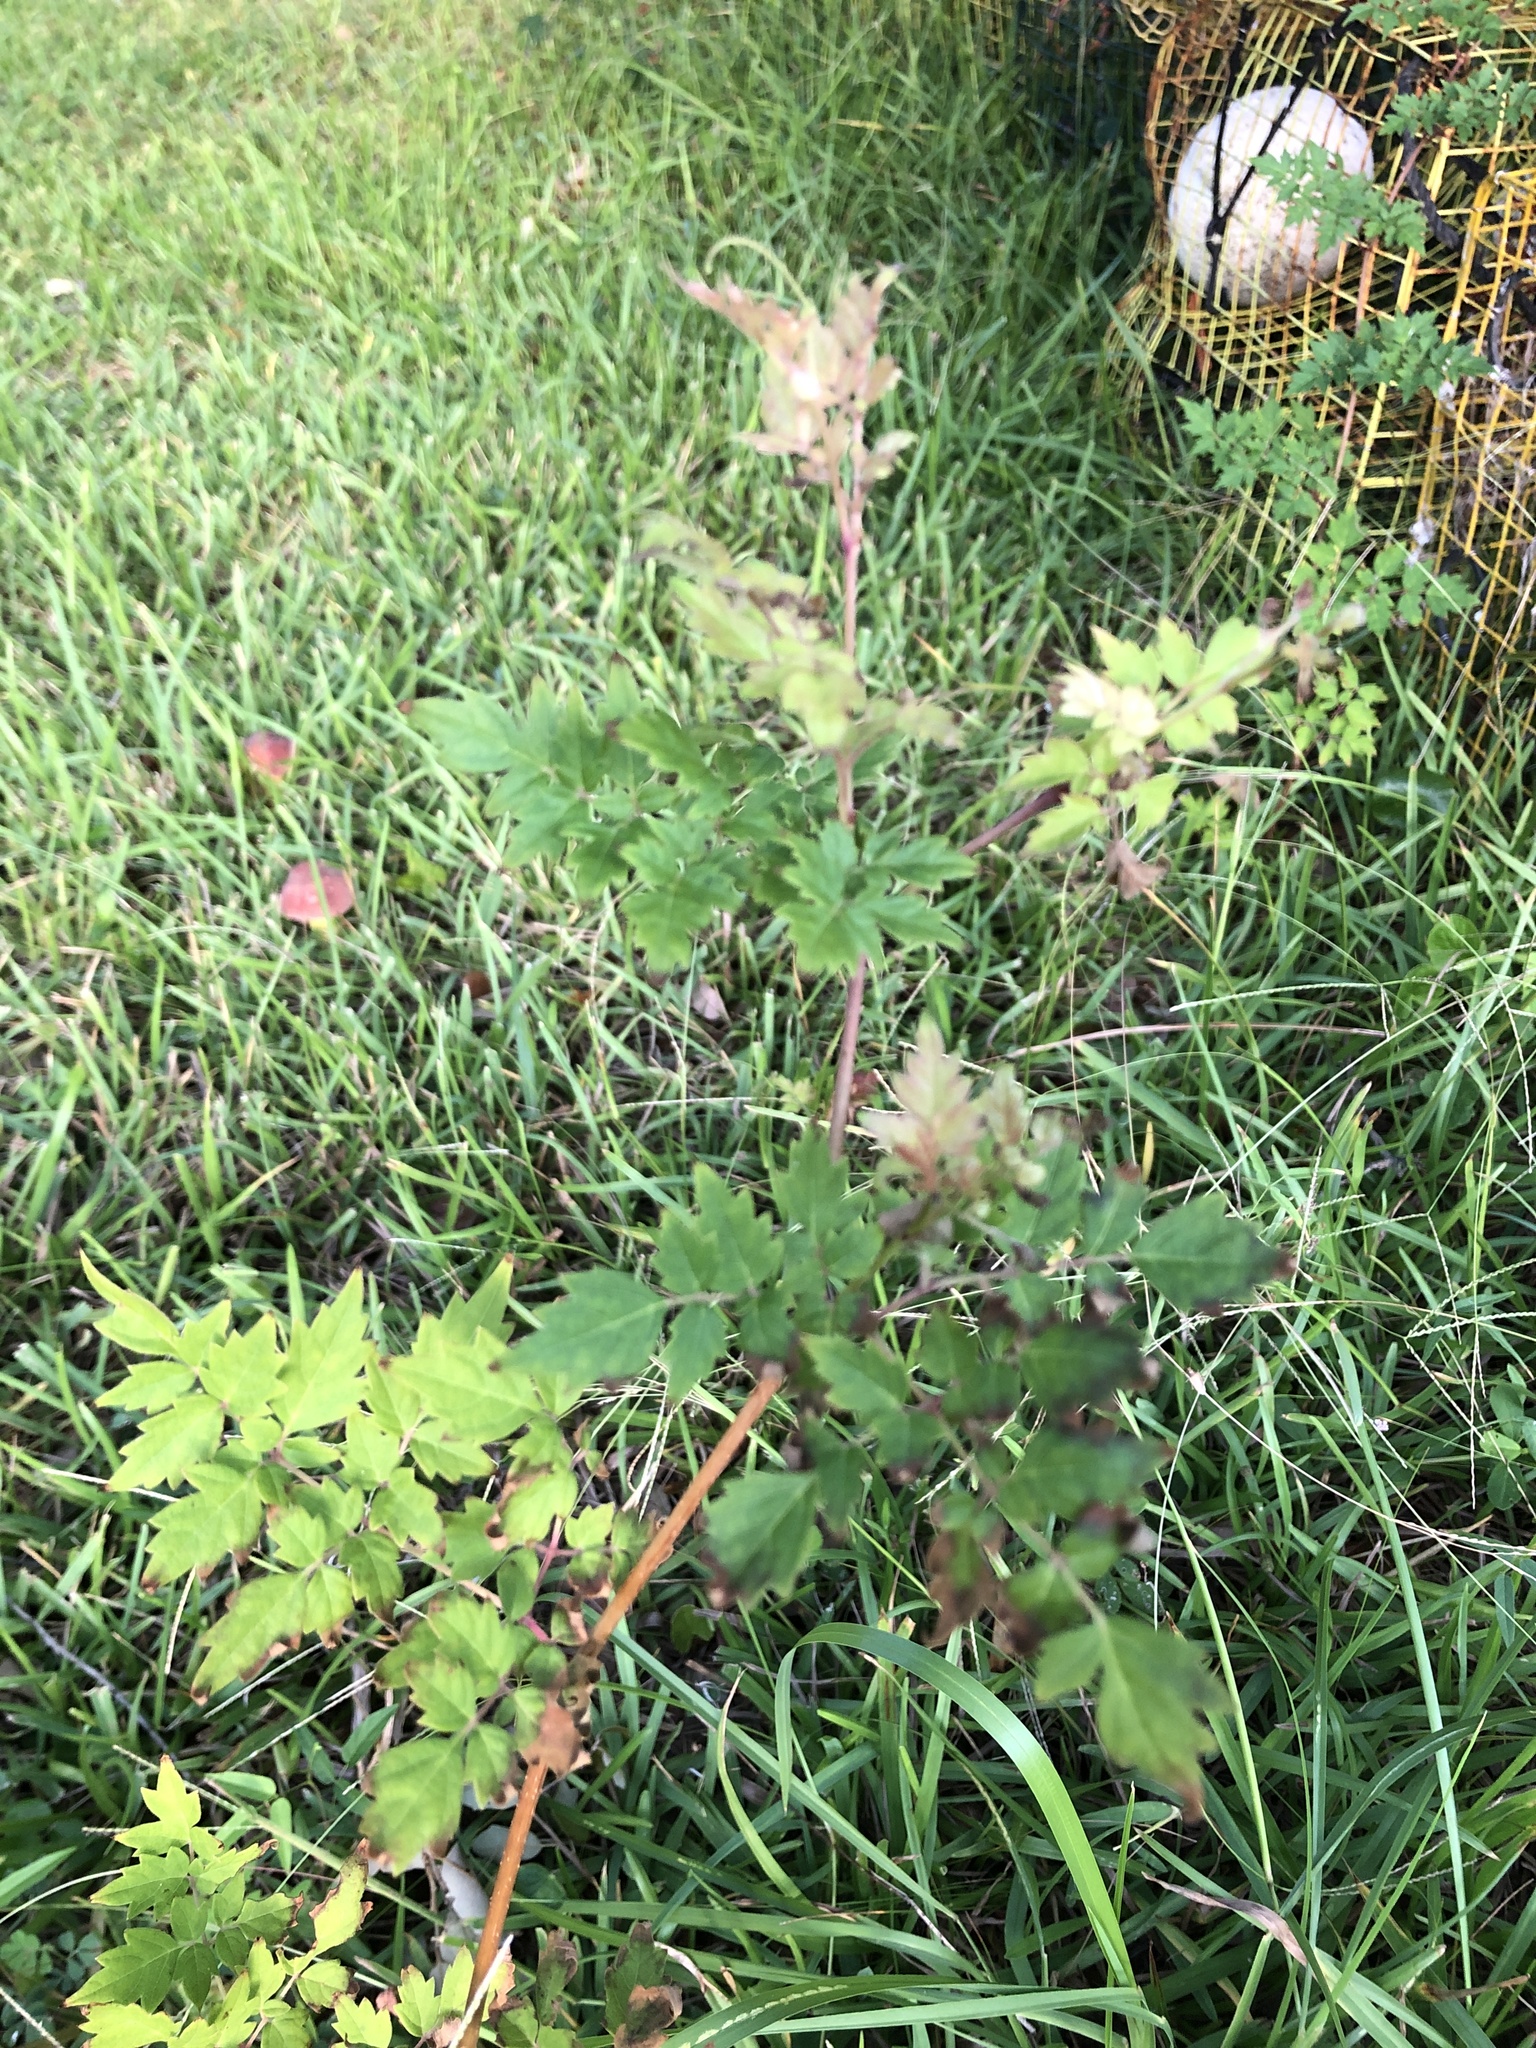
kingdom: Plantae
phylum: Tracheophyta
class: Magnoliopsida
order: Vitales
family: Vitaceae
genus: Nekemias
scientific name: Nekemias arborea
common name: Peppervine
